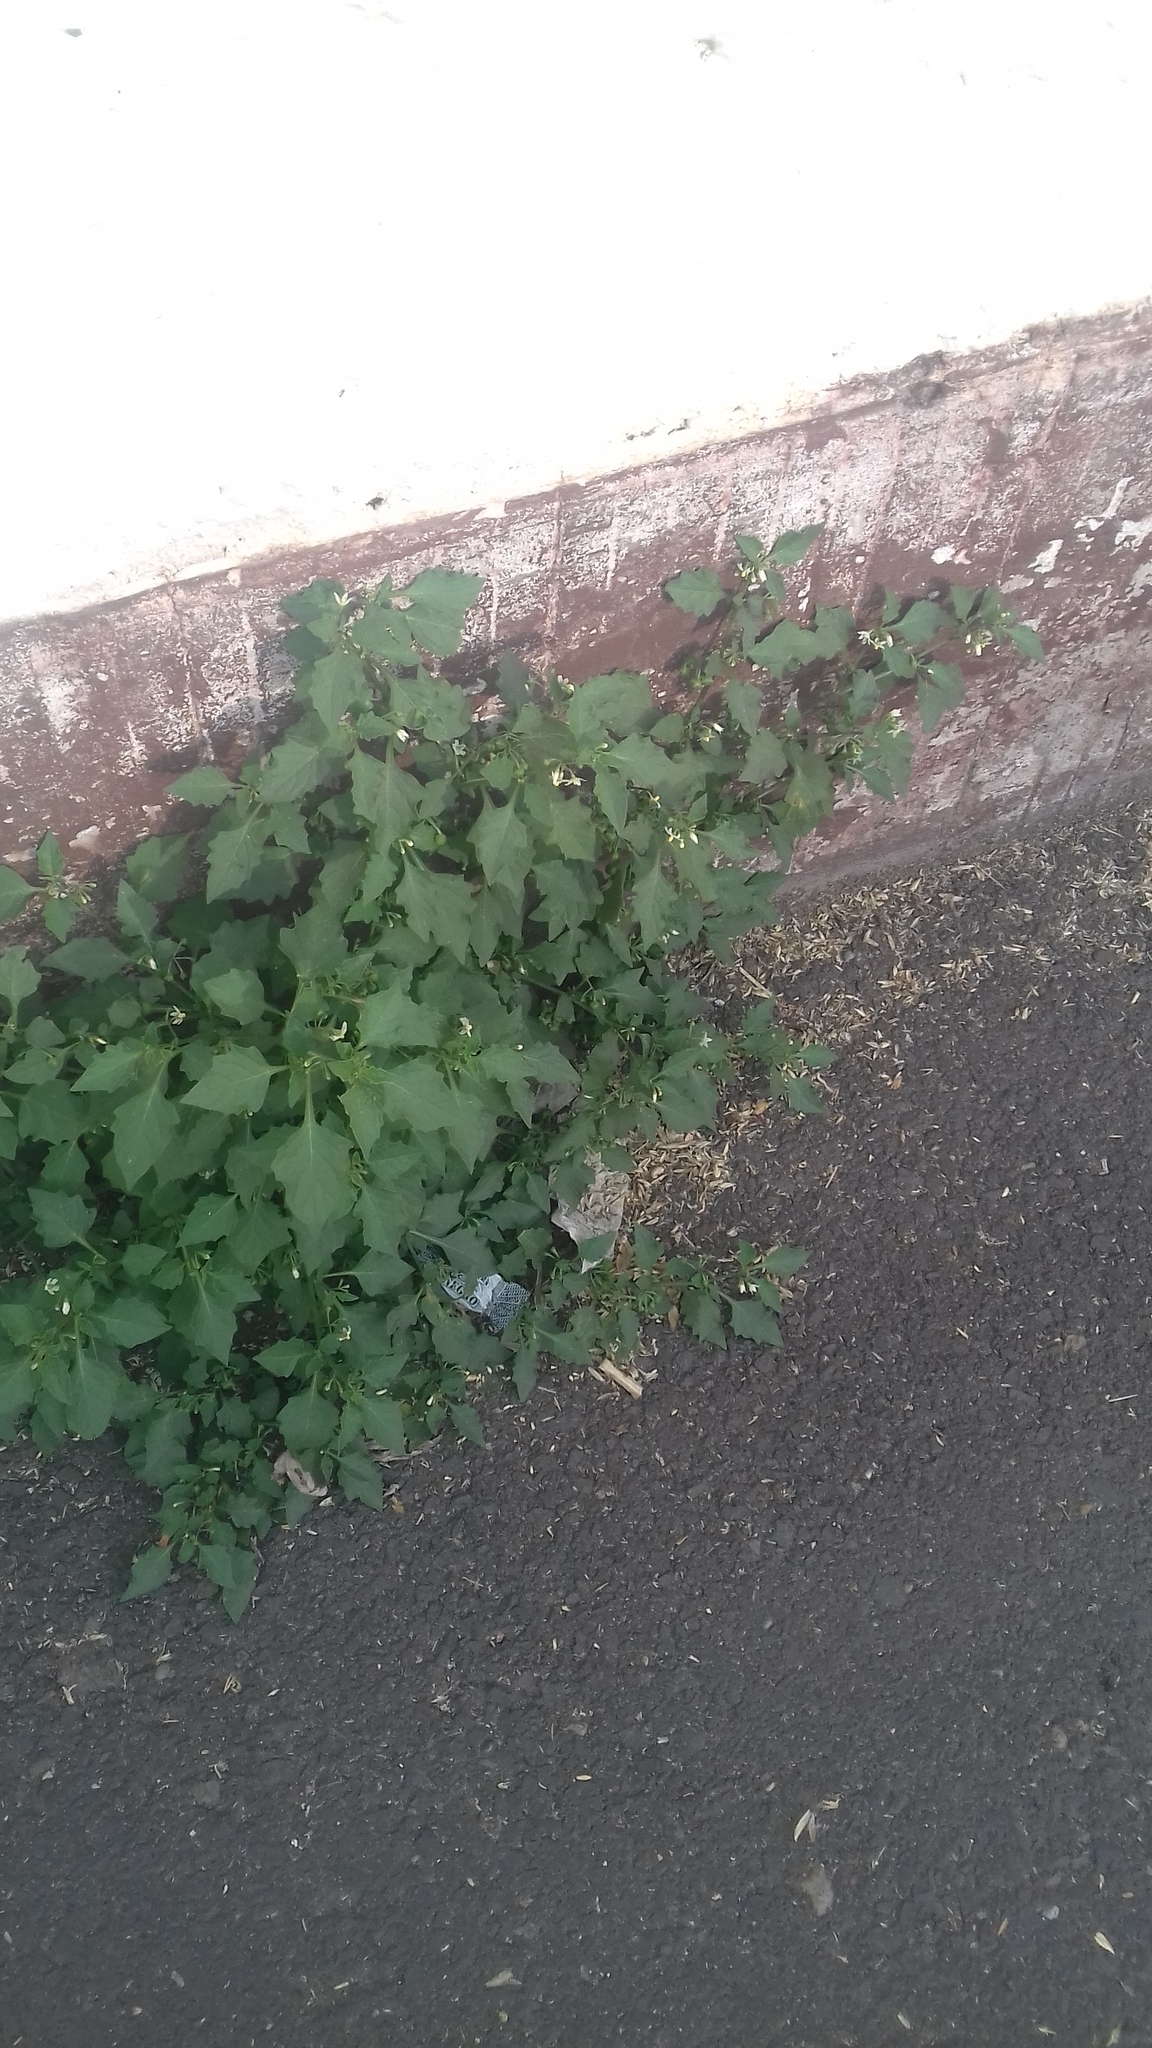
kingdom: Plantae
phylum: Tracheophyta
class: Magnoliopsida
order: Solanales
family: Solanaceae
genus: Solanum
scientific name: Solanum nigrum
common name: Black nightshade
